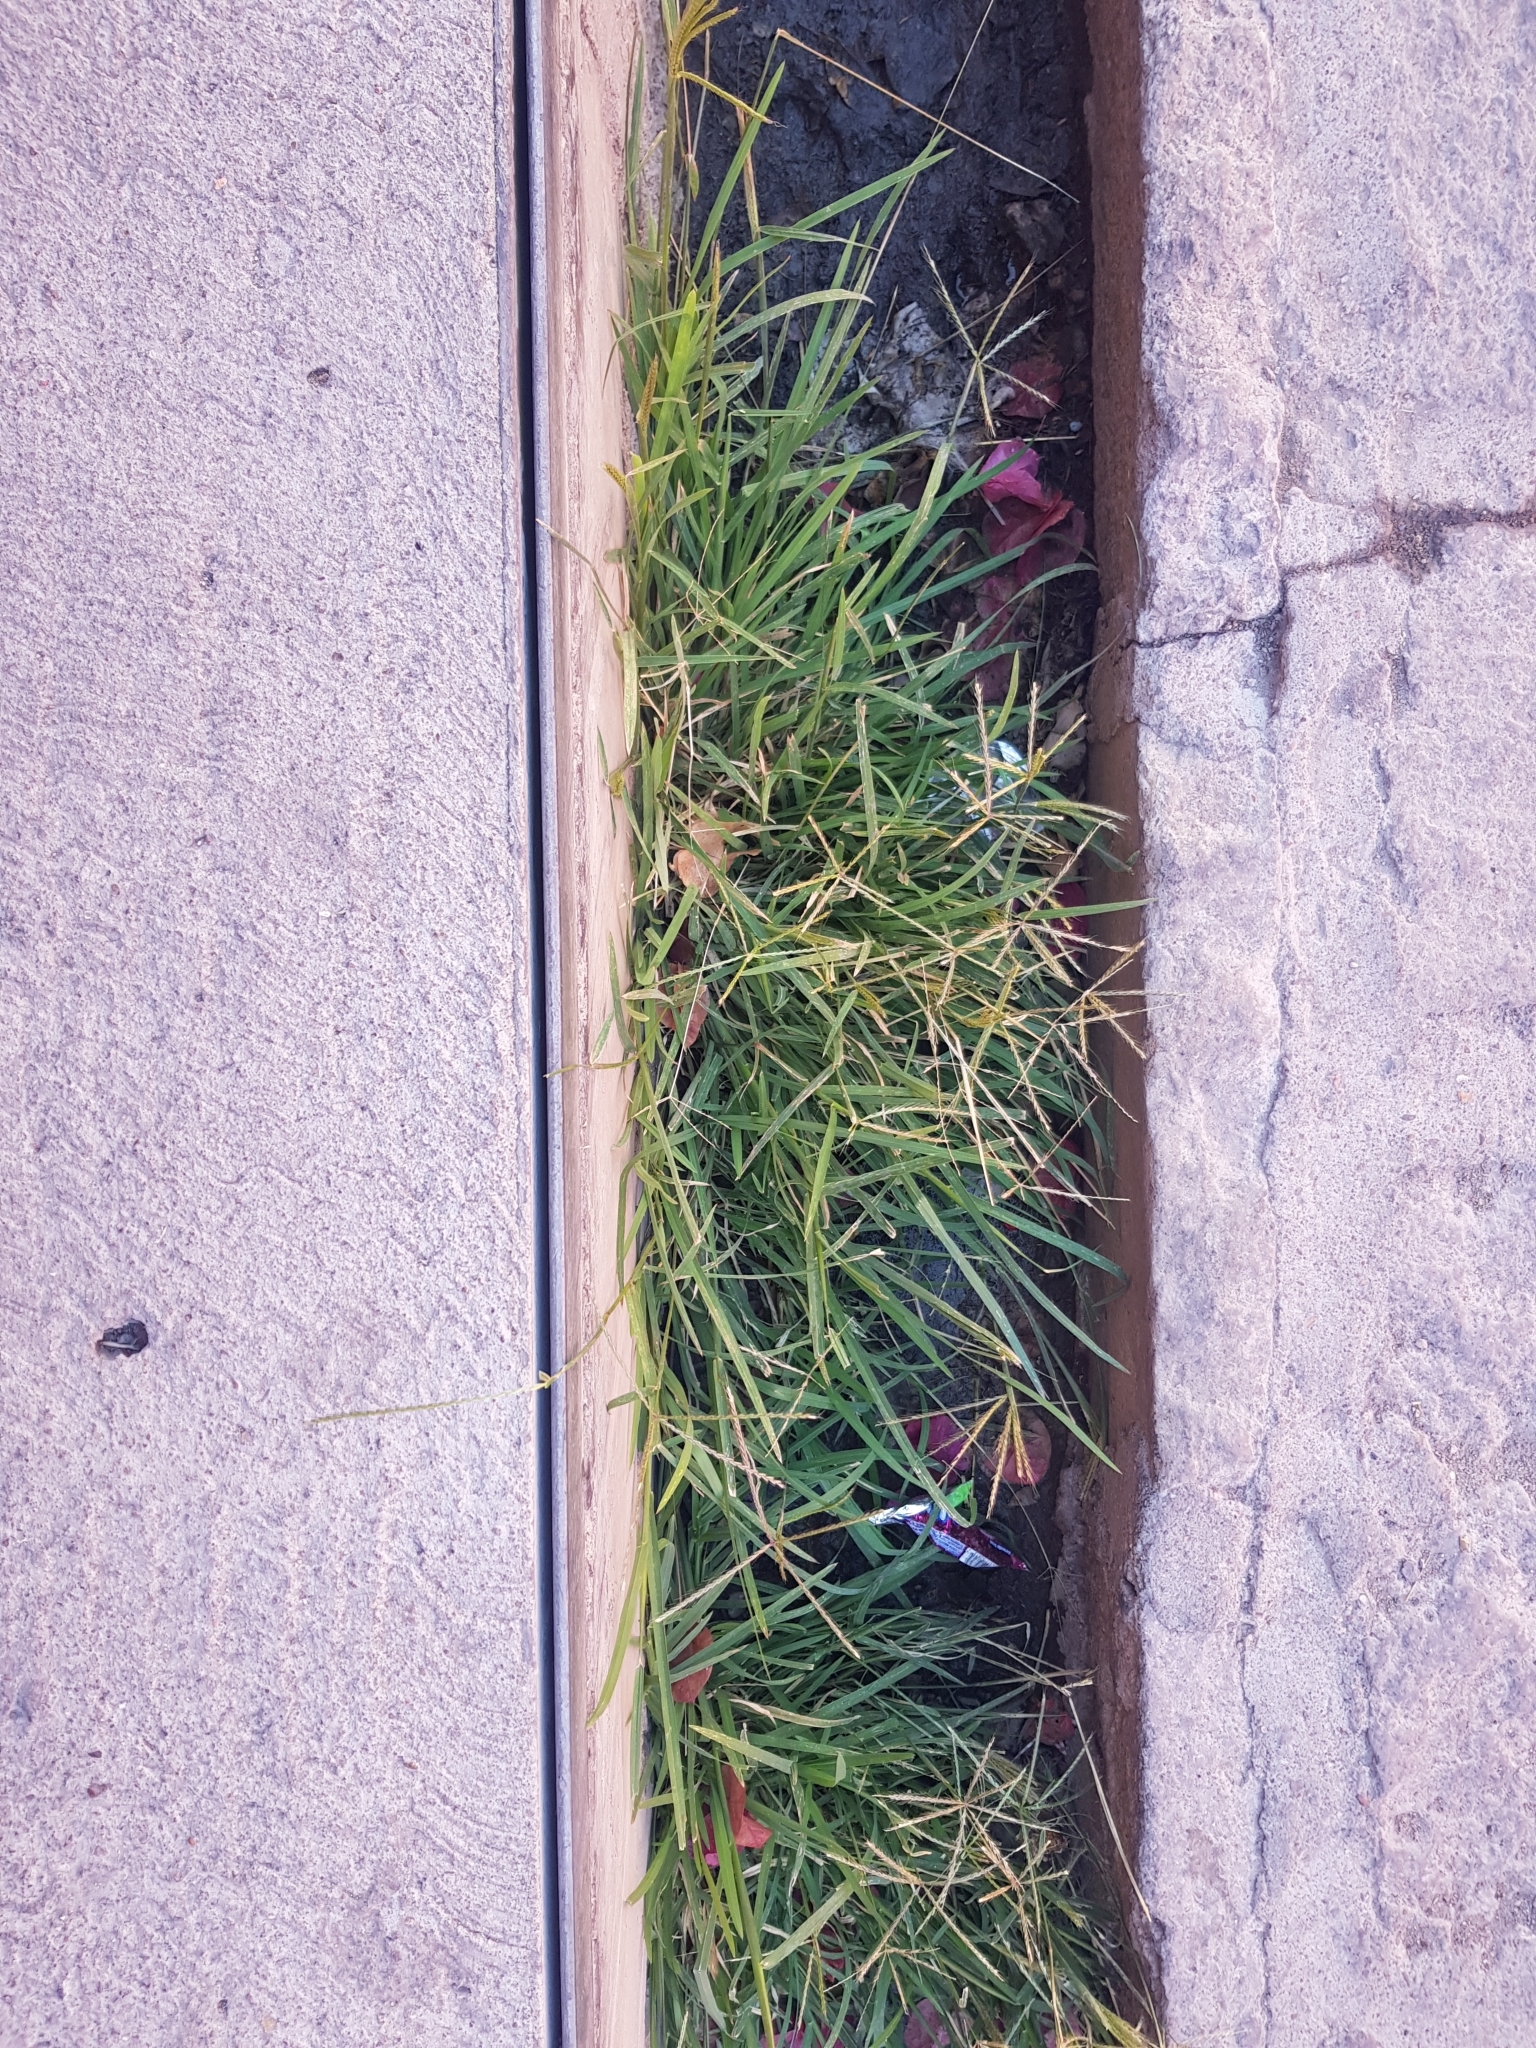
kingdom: Plantae
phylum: Tracheophyta
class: Liliopsida
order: Poales
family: Poaceae
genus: Cynodon
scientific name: Cynodon dactylon
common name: Bermuda grass
